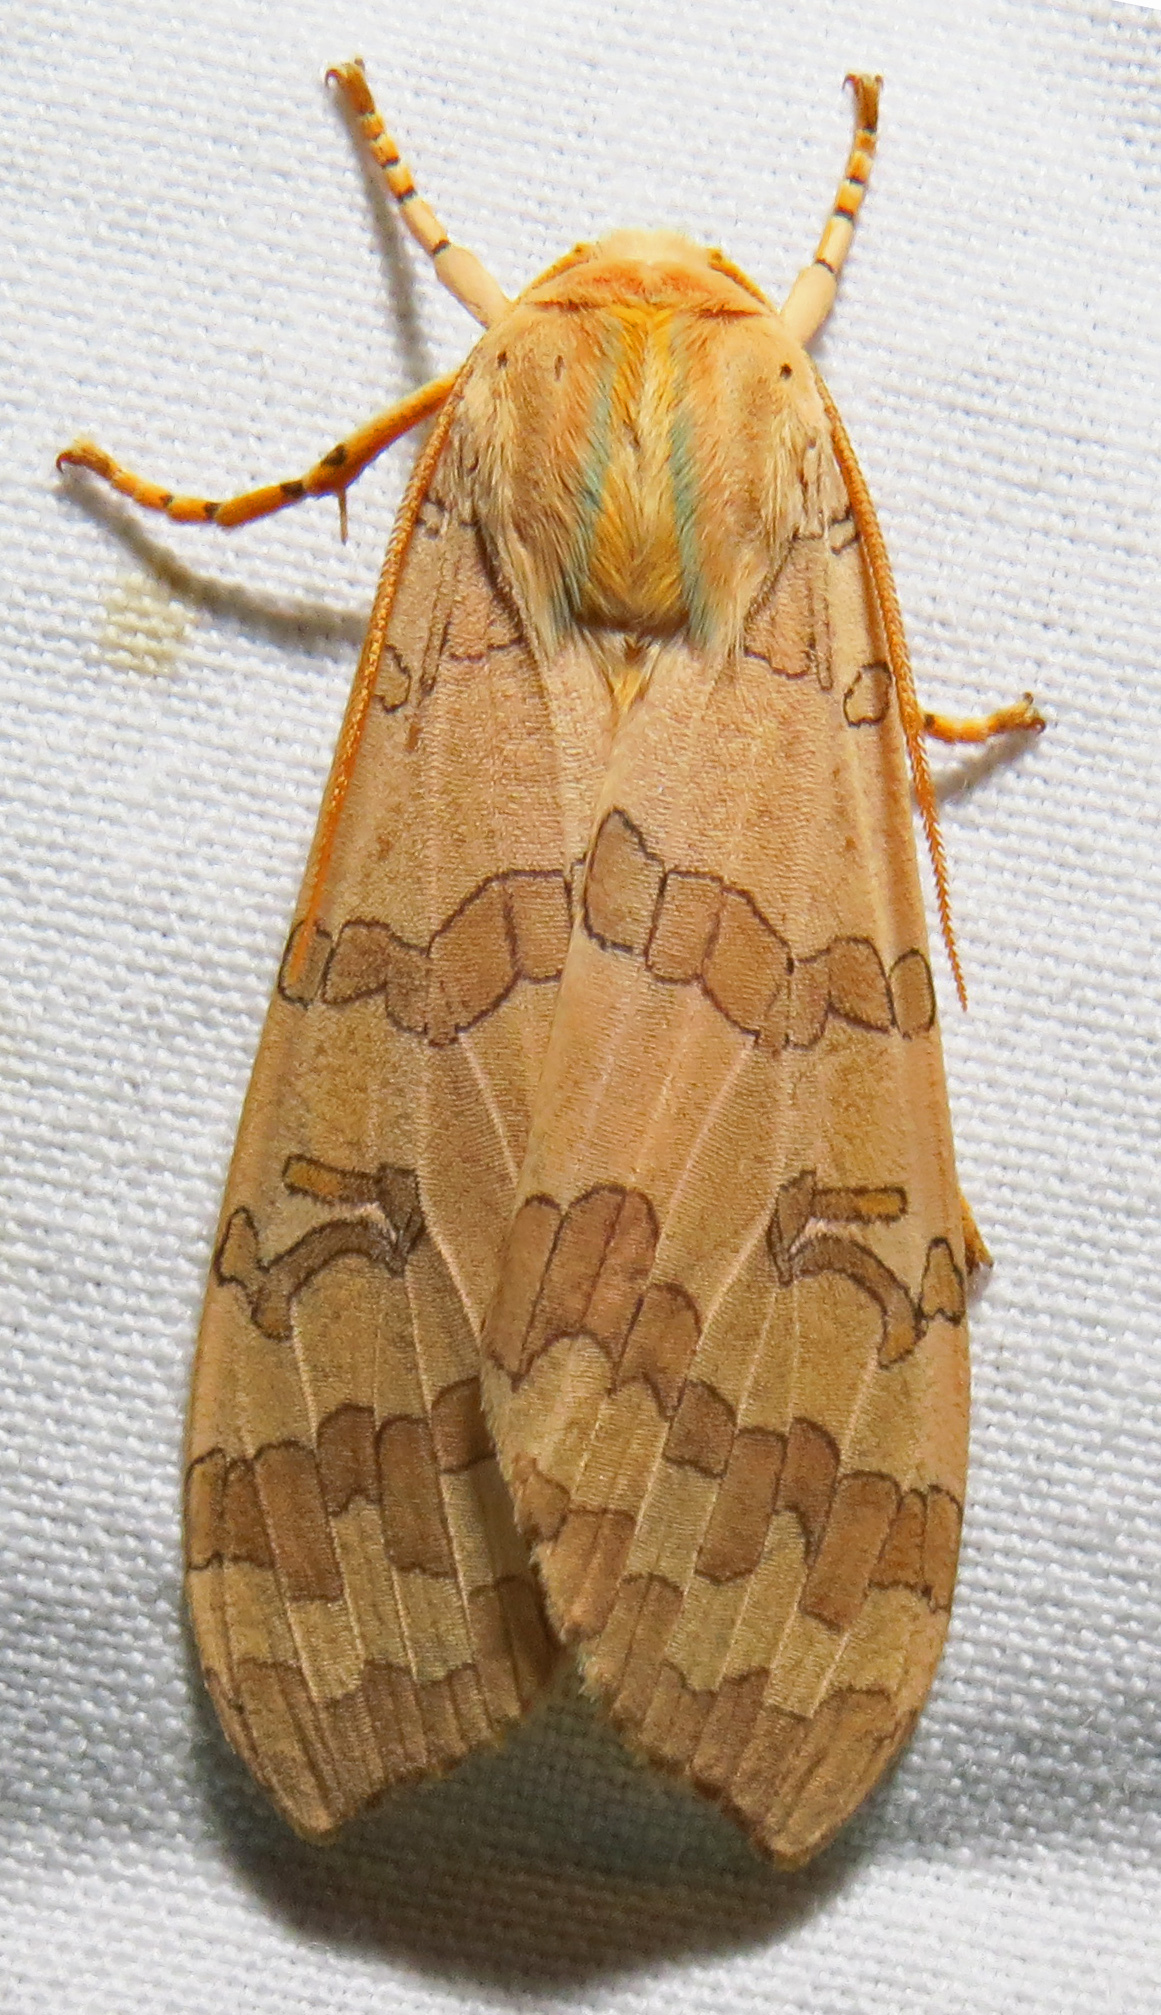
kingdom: Animalia
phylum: Arthropoda
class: Insecta
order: Lepidoptera
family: Erebidae
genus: Halysidota
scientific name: Halysidota
